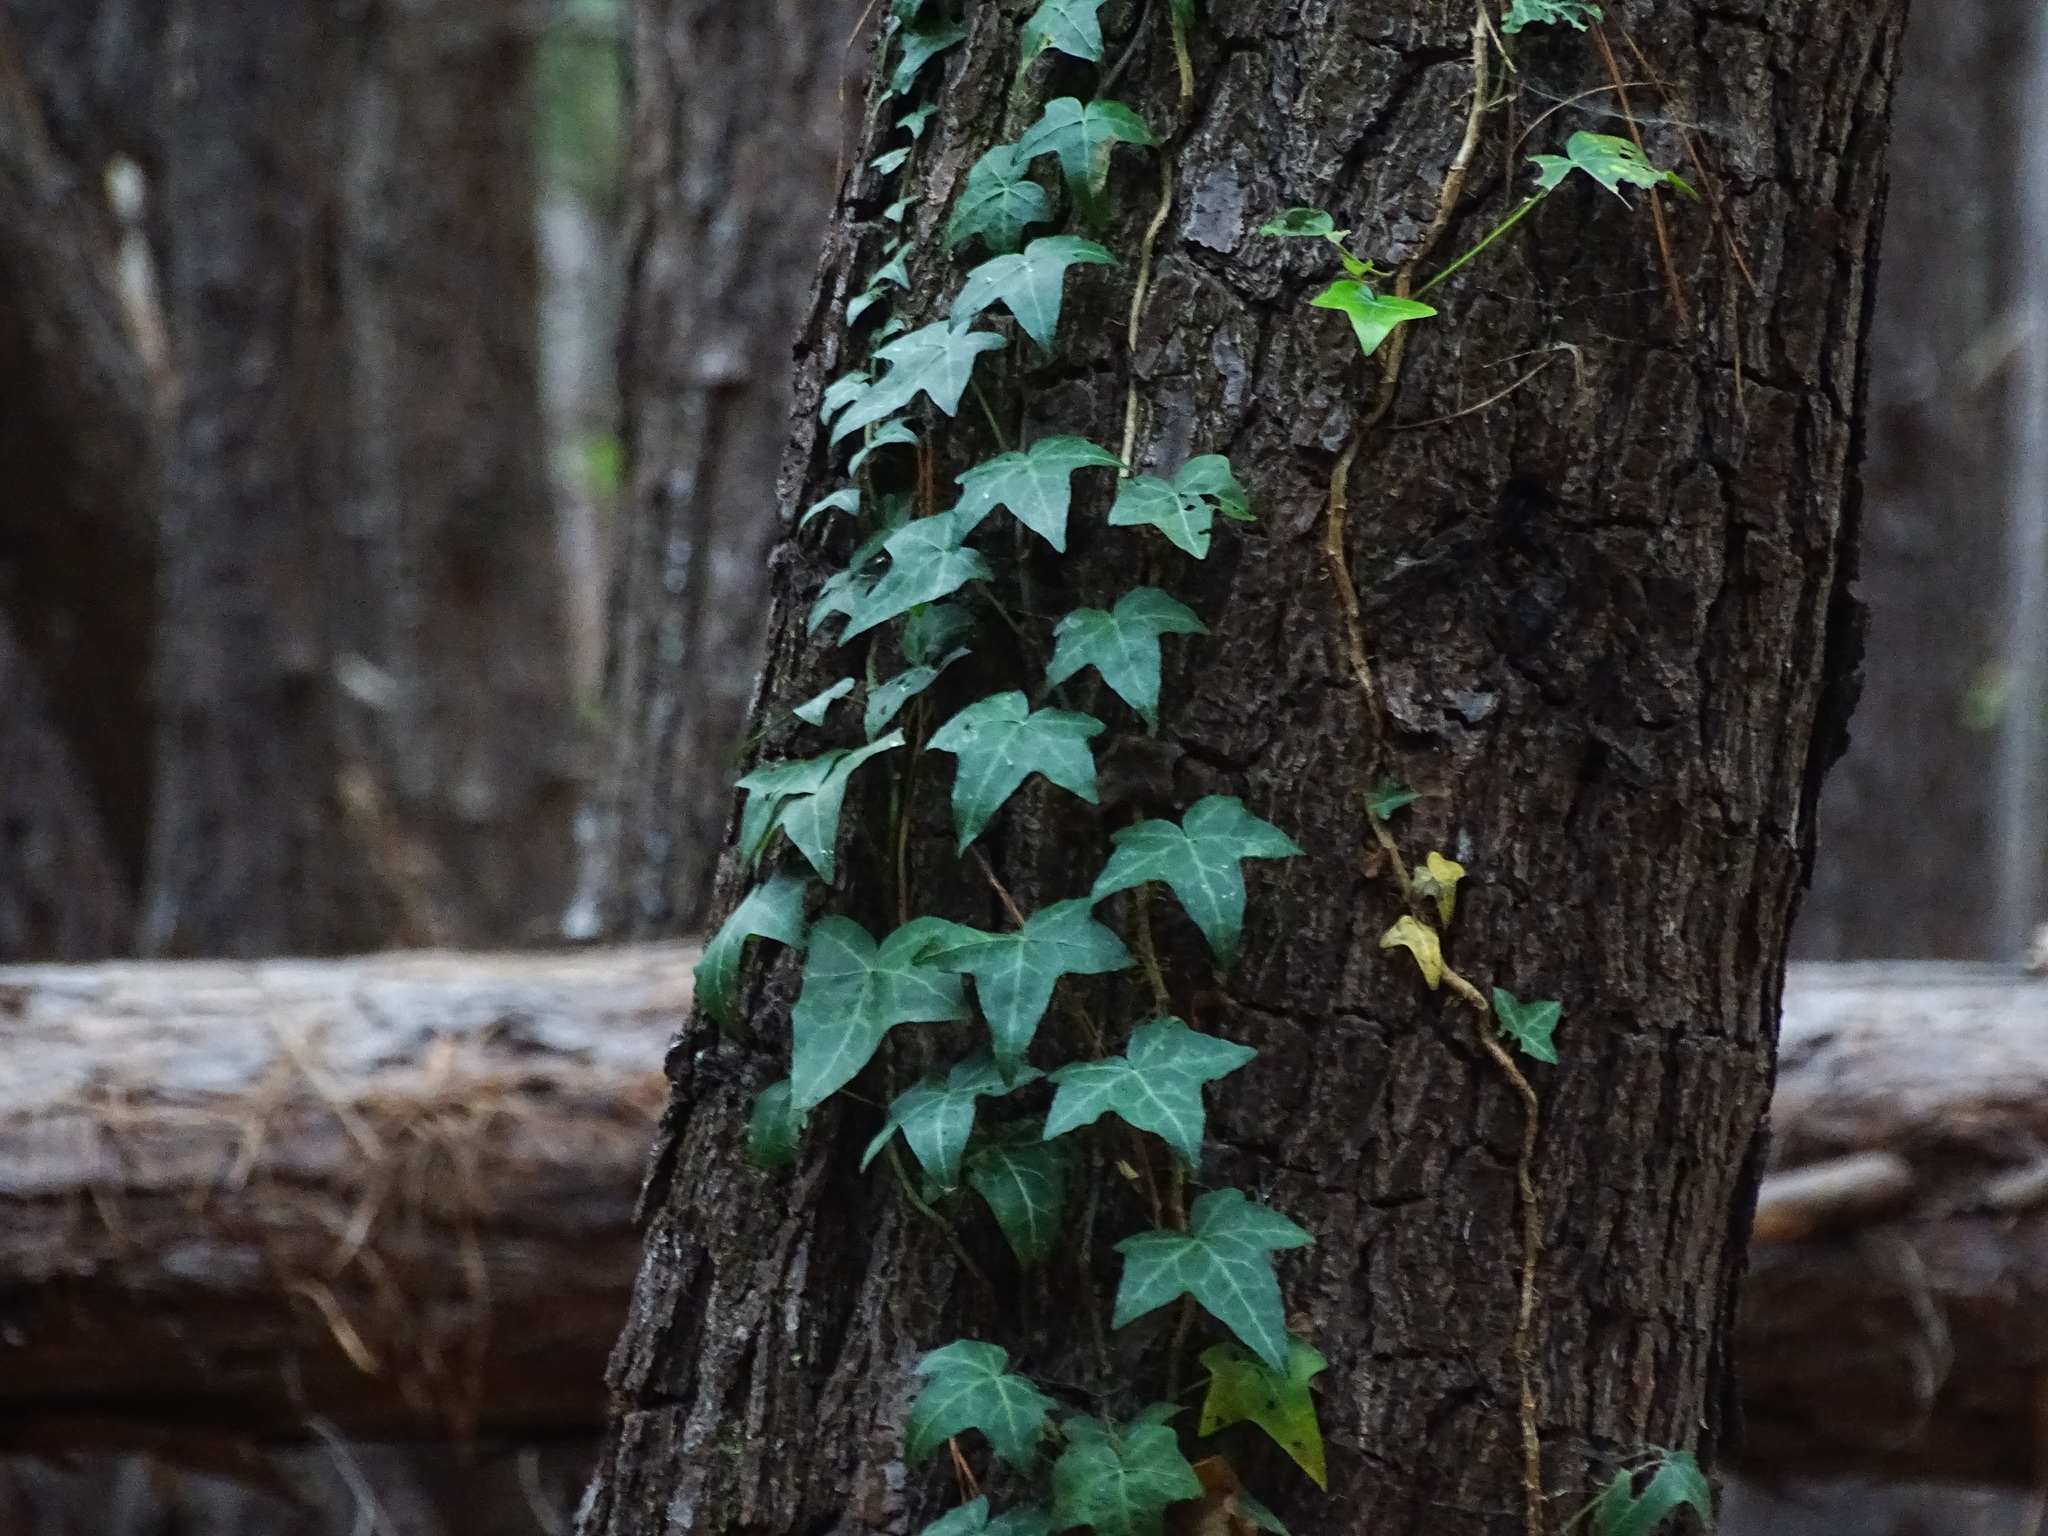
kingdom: Plantae
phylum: Tracheophyta
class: Magnoliopsida
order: Apiales
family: Araliaceae
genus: Hedera
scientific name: Hedera helix
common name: Ivy
